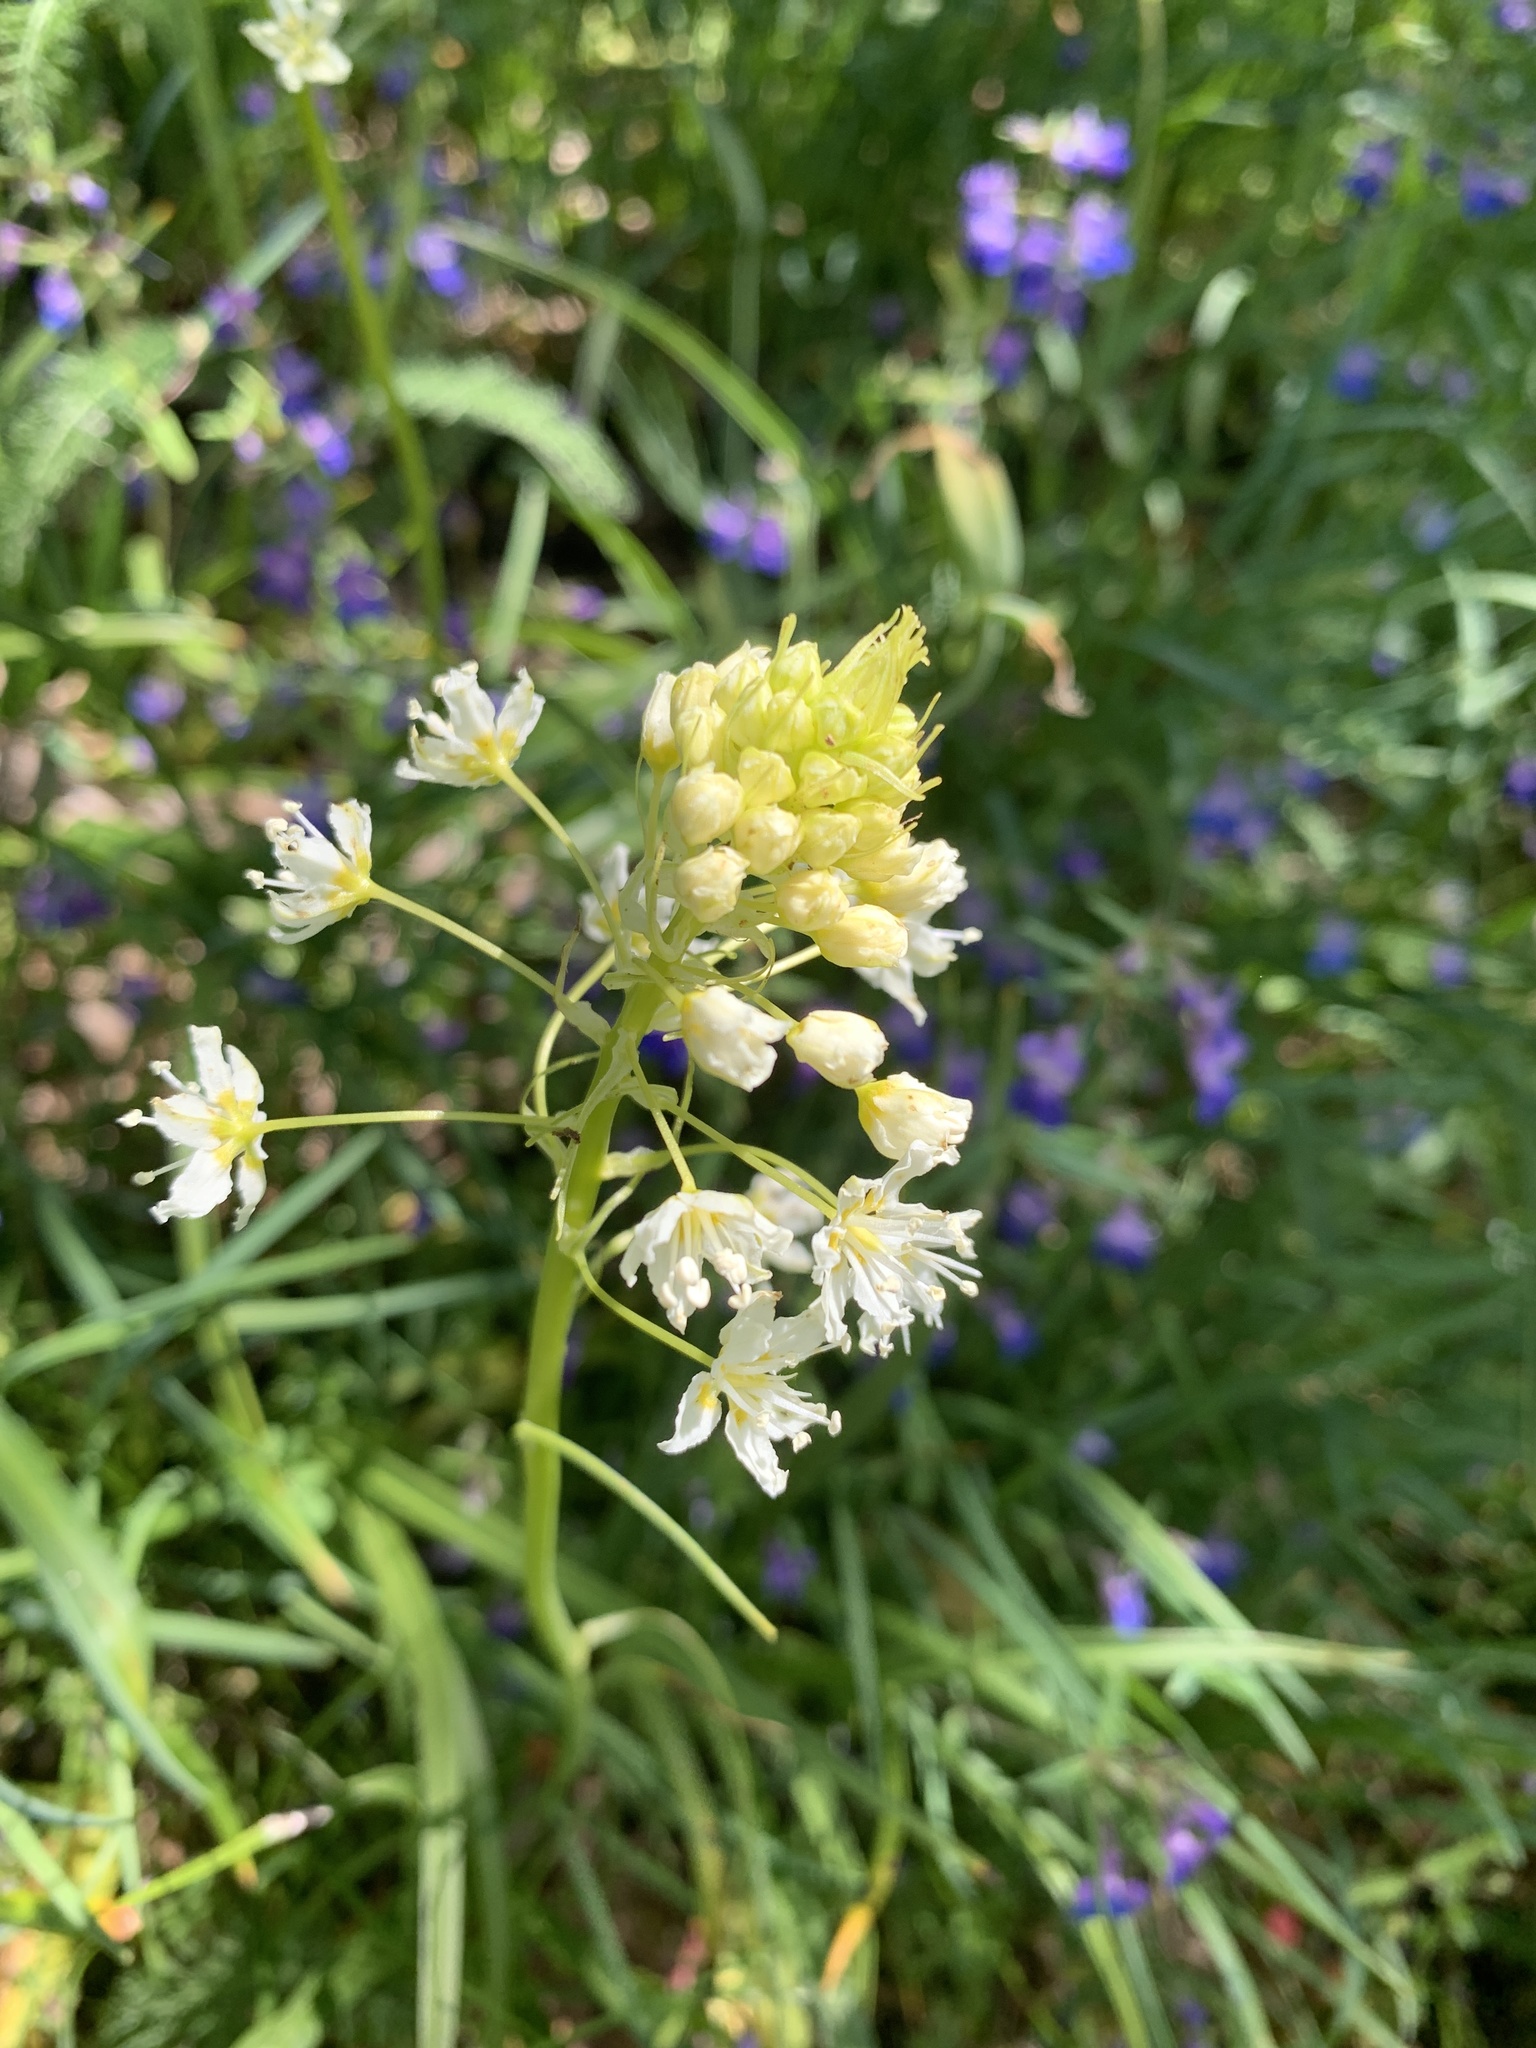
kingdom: Plantae
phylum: Tracheophyta
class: Liliopsida
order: Liliales
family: Melanthiaceae
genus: Toxicoscordion
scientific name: Toxicoscordion venenosum
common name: Meadow death camas
